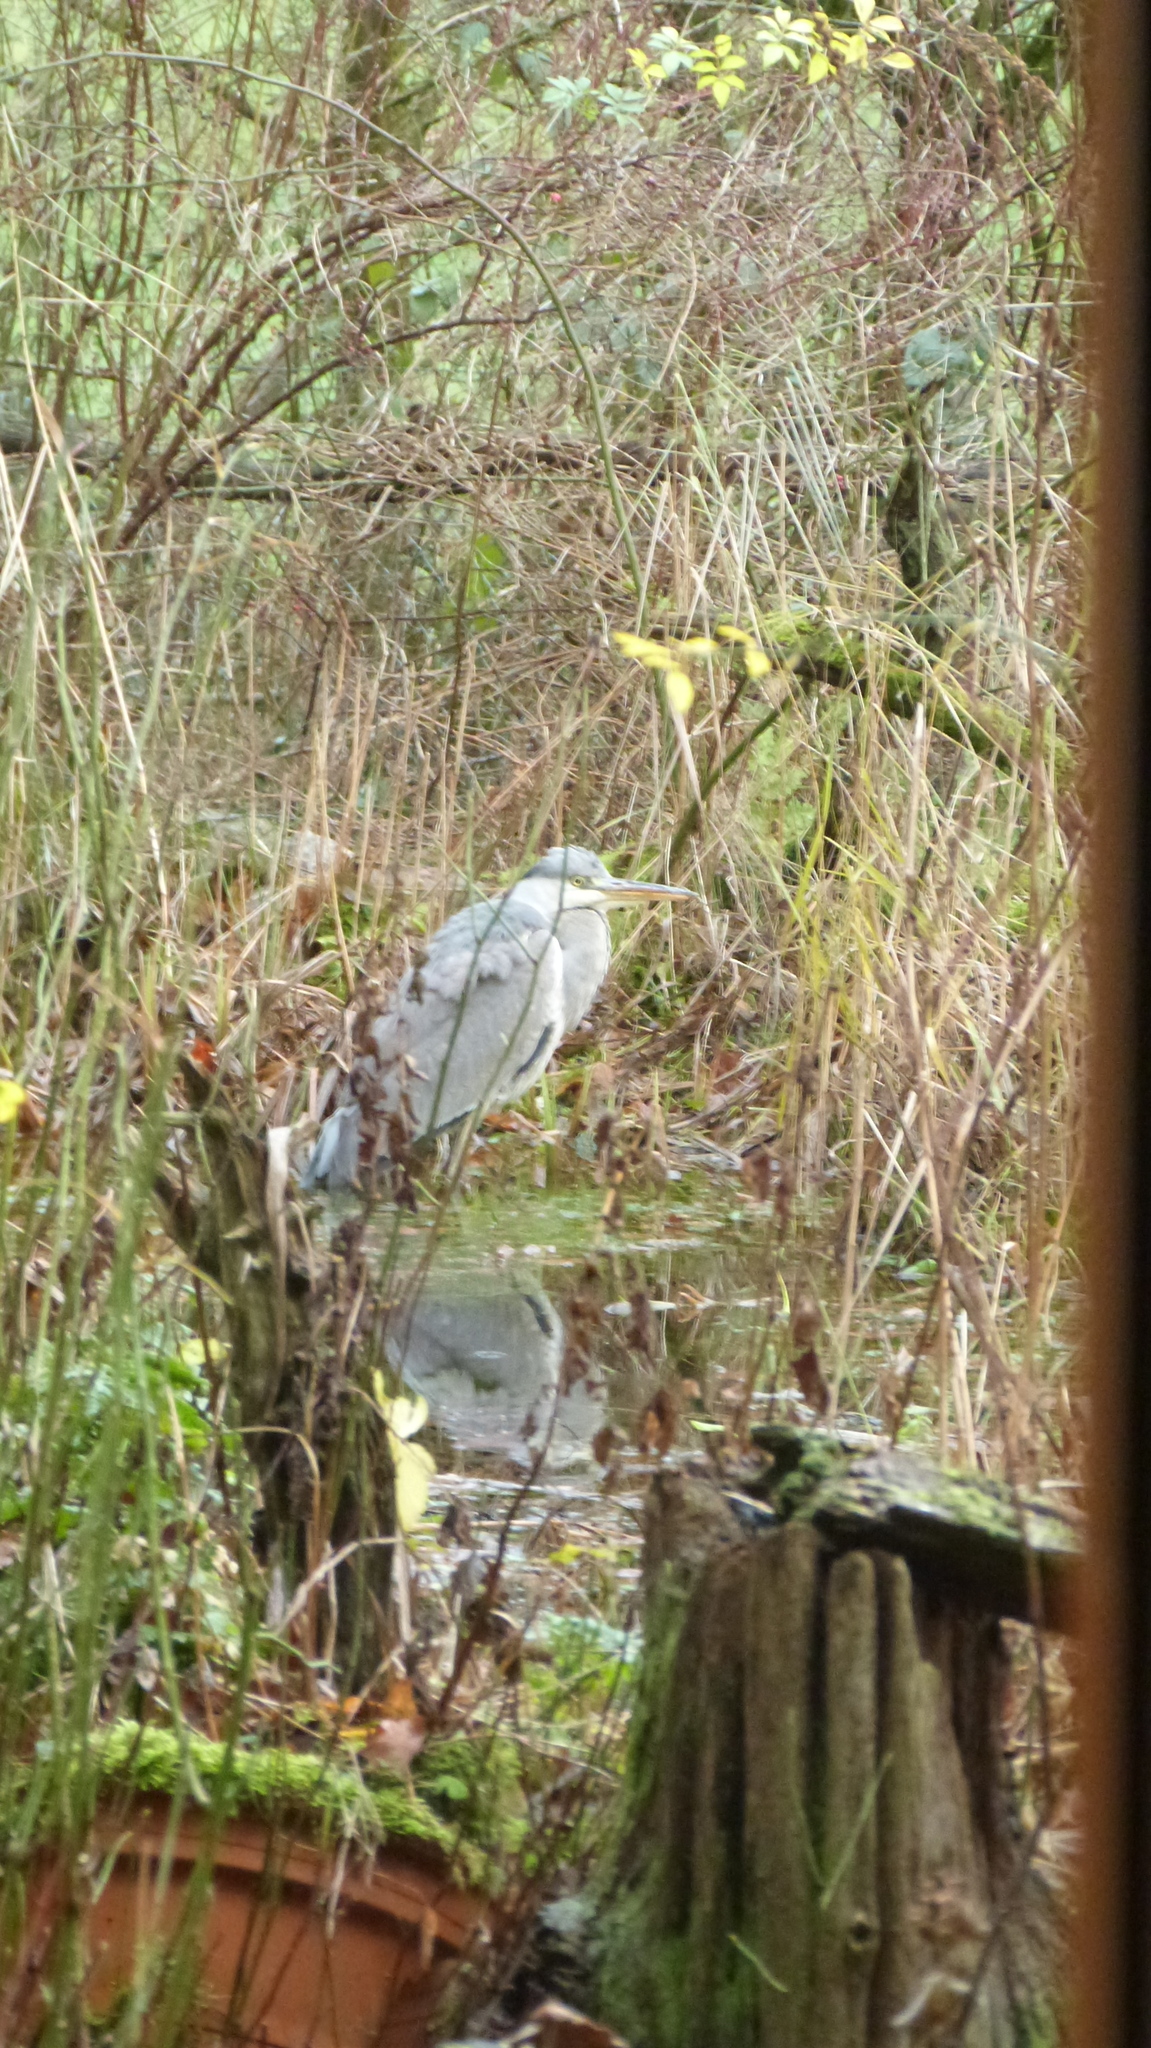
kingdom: Animalia
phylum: Chordata
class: Aves
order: Pelecaniformes
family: Ardeidae
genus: Ardea
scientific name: Ardea cinerea
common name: Grey heron
